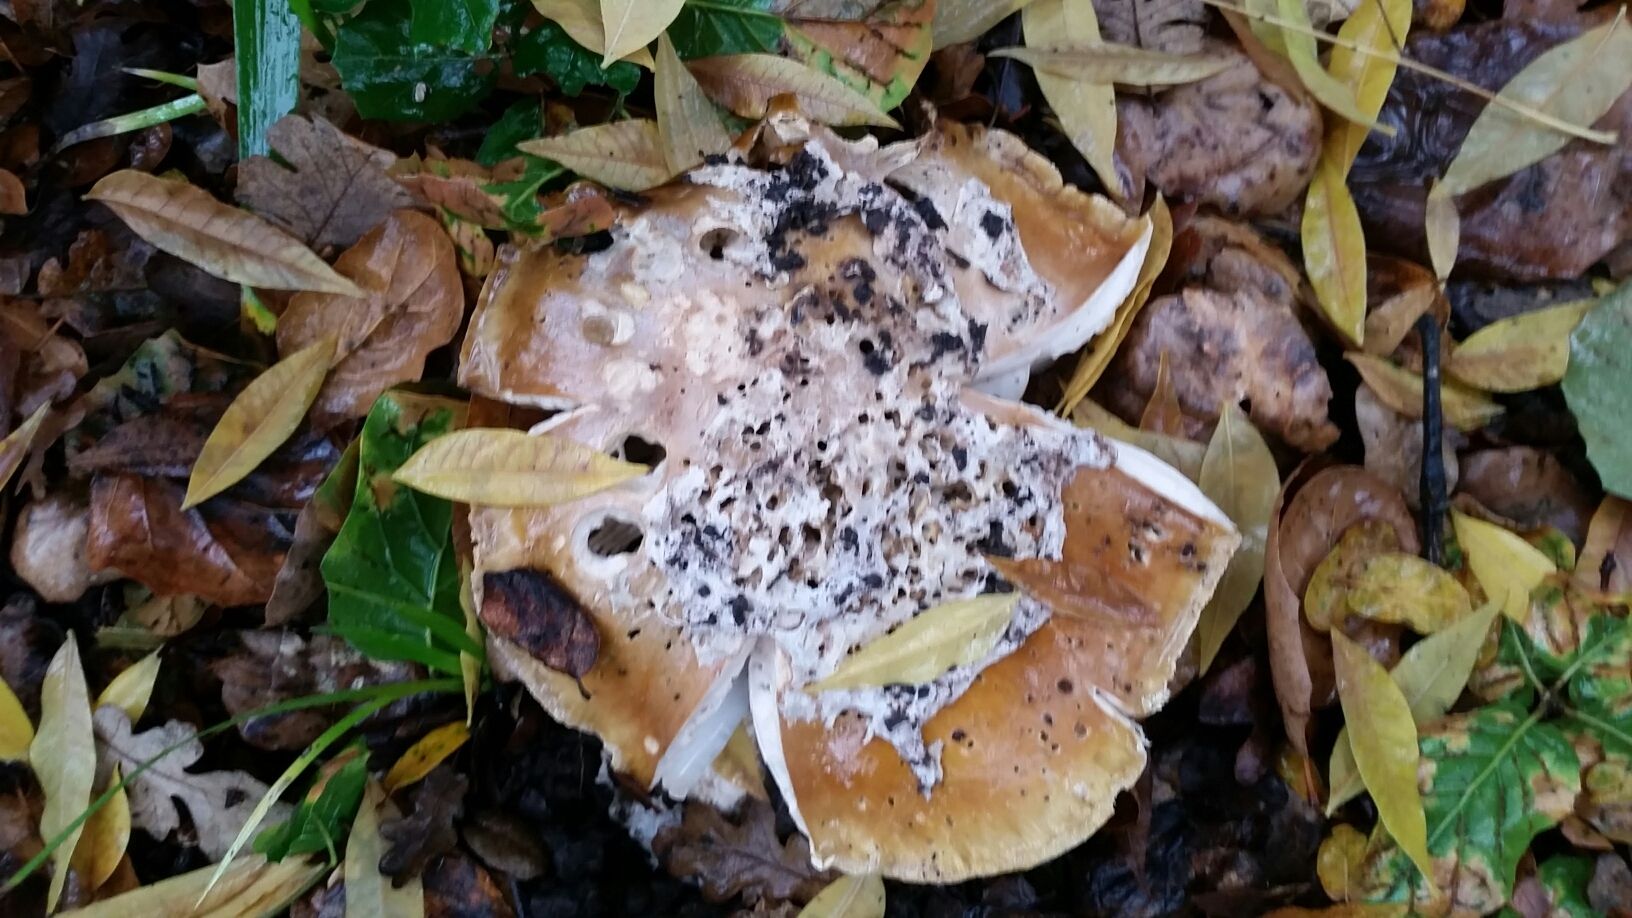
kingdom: Fungi
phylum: Basidiomycota
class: Agaricomycetes
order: Agaricales
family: Amanitaceae
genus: Amanita
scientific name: Amanita calyptroderma
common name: Coccora
